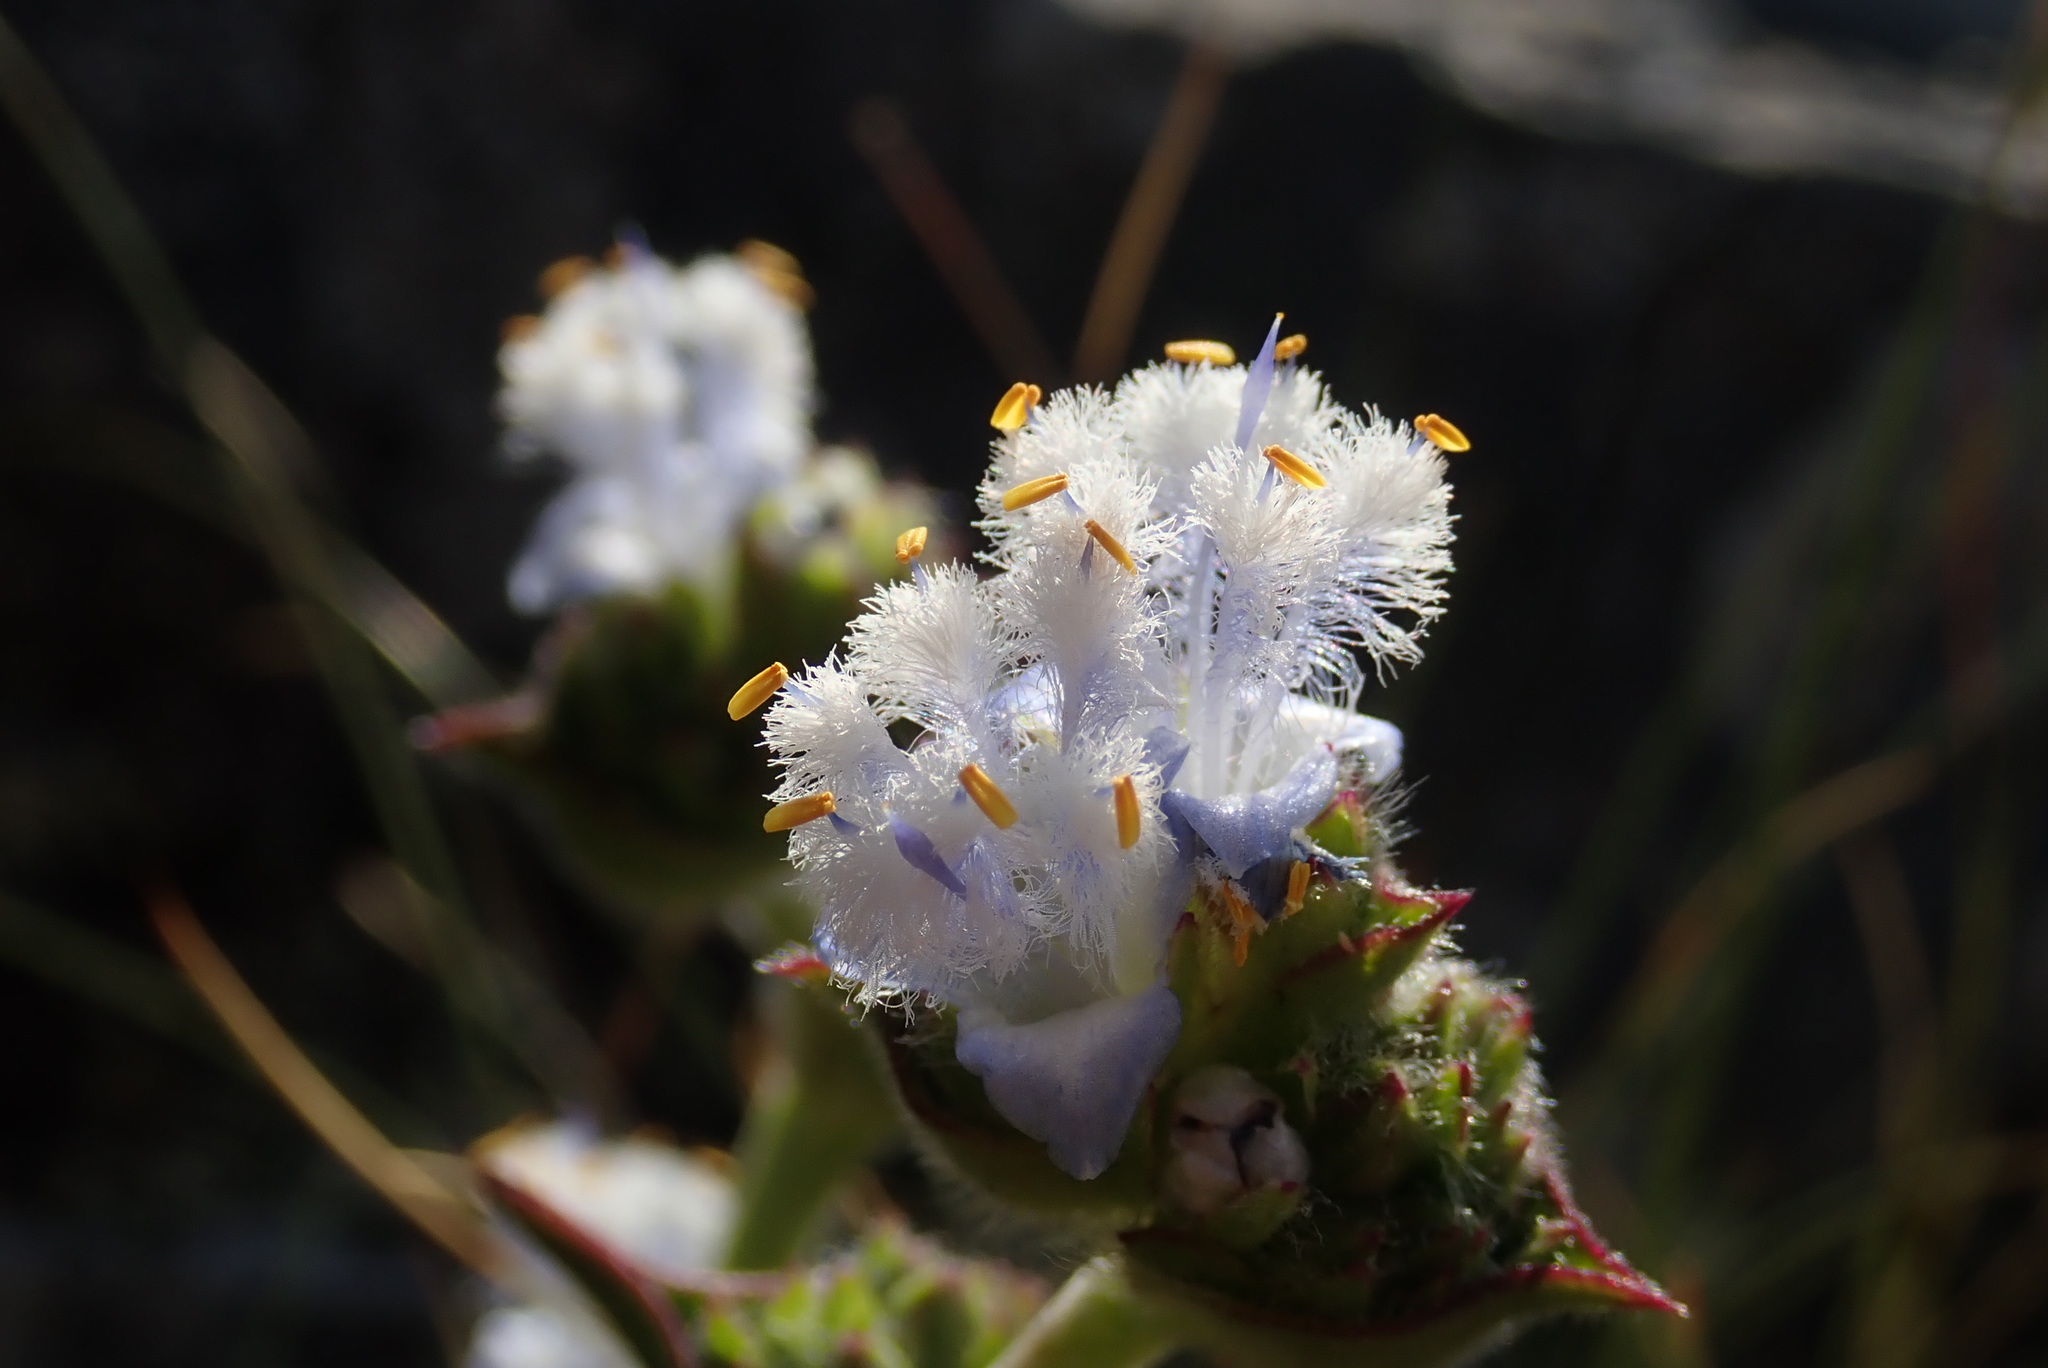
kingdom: Plantae
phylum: Tracheophyta
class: Liliopsida
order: Commelinales
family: Commelinaceae
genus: Cyanotis
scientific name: Cyanotis speciosa
